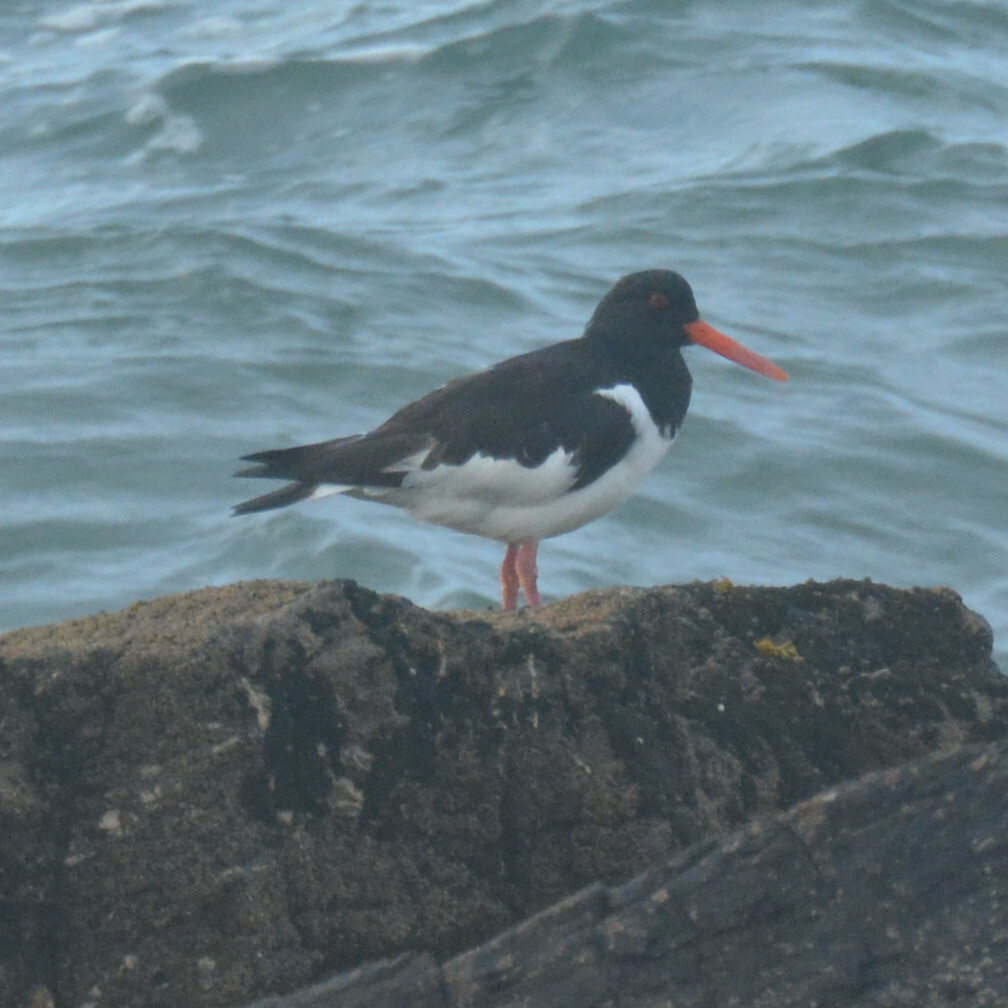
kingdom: Animalia
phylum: Chordata
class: Aves
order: Charadriiformes
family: Haematopodidae
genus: Haematopus
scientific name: Haematopus ostralegus
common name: Eurasian oystercatcher
